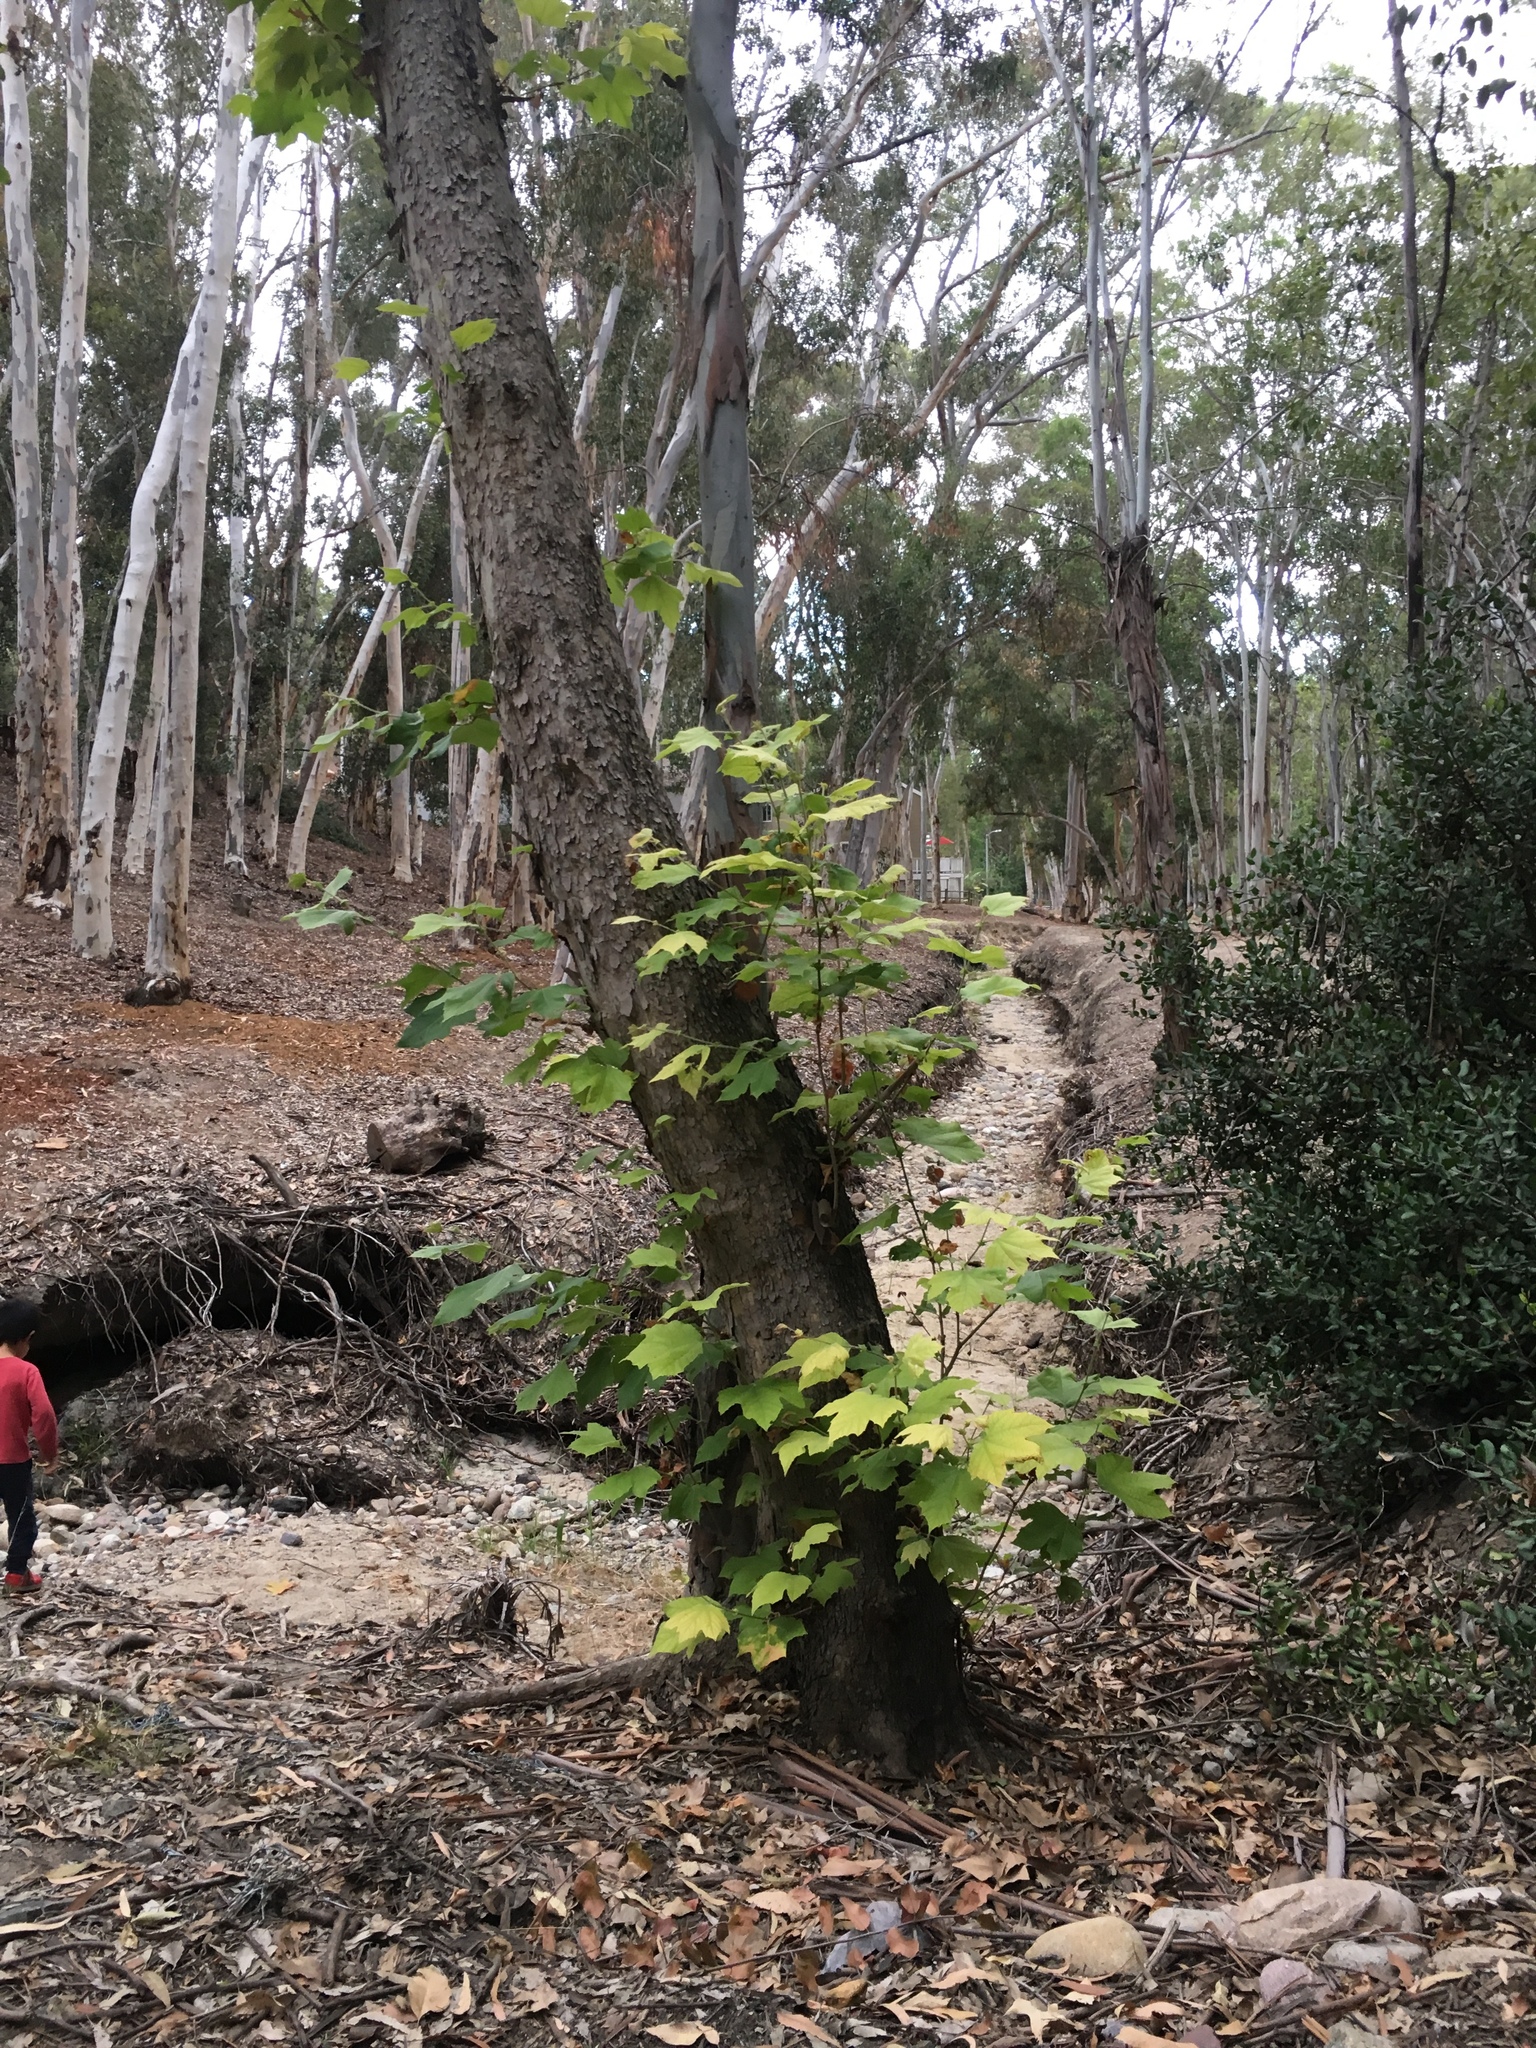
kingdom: Plantae
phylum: Tracheophyta
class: Magnoliopsida
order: Proteales
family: Platanaceae
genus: Platanus
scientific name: Platanus racemosa
